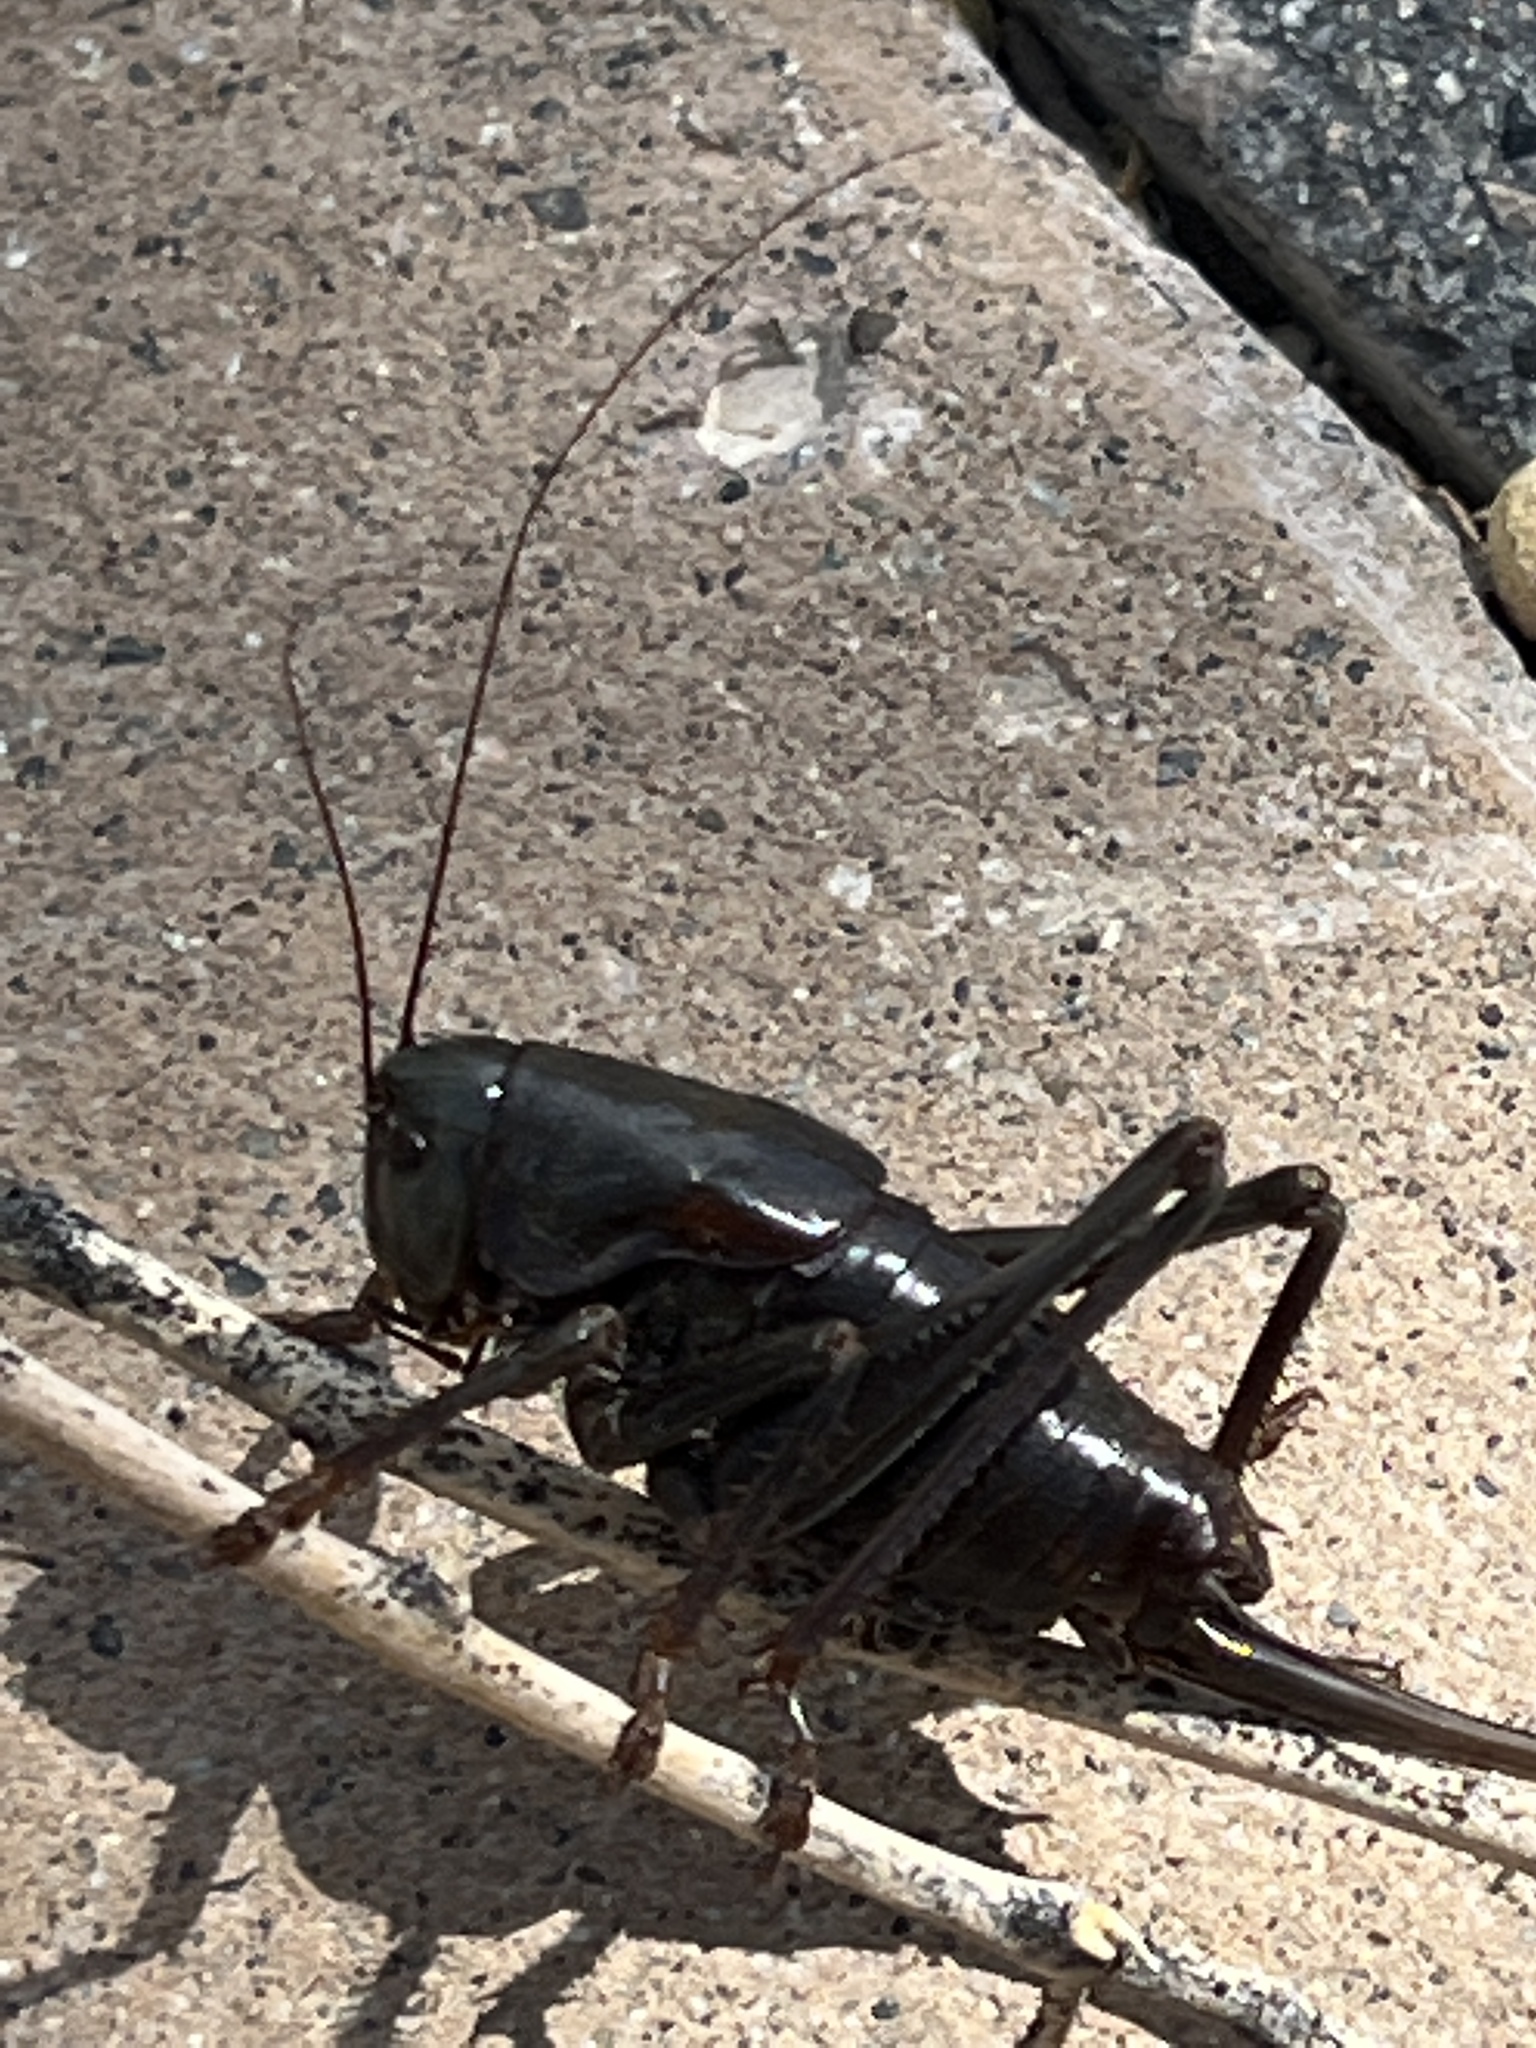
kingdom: Animalia
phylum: Arthropoda
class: Insecta
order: Orthoptera
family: Tettigoniidae
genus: Anabrus
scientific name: Anabrus simplex
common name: Mormon cricket
